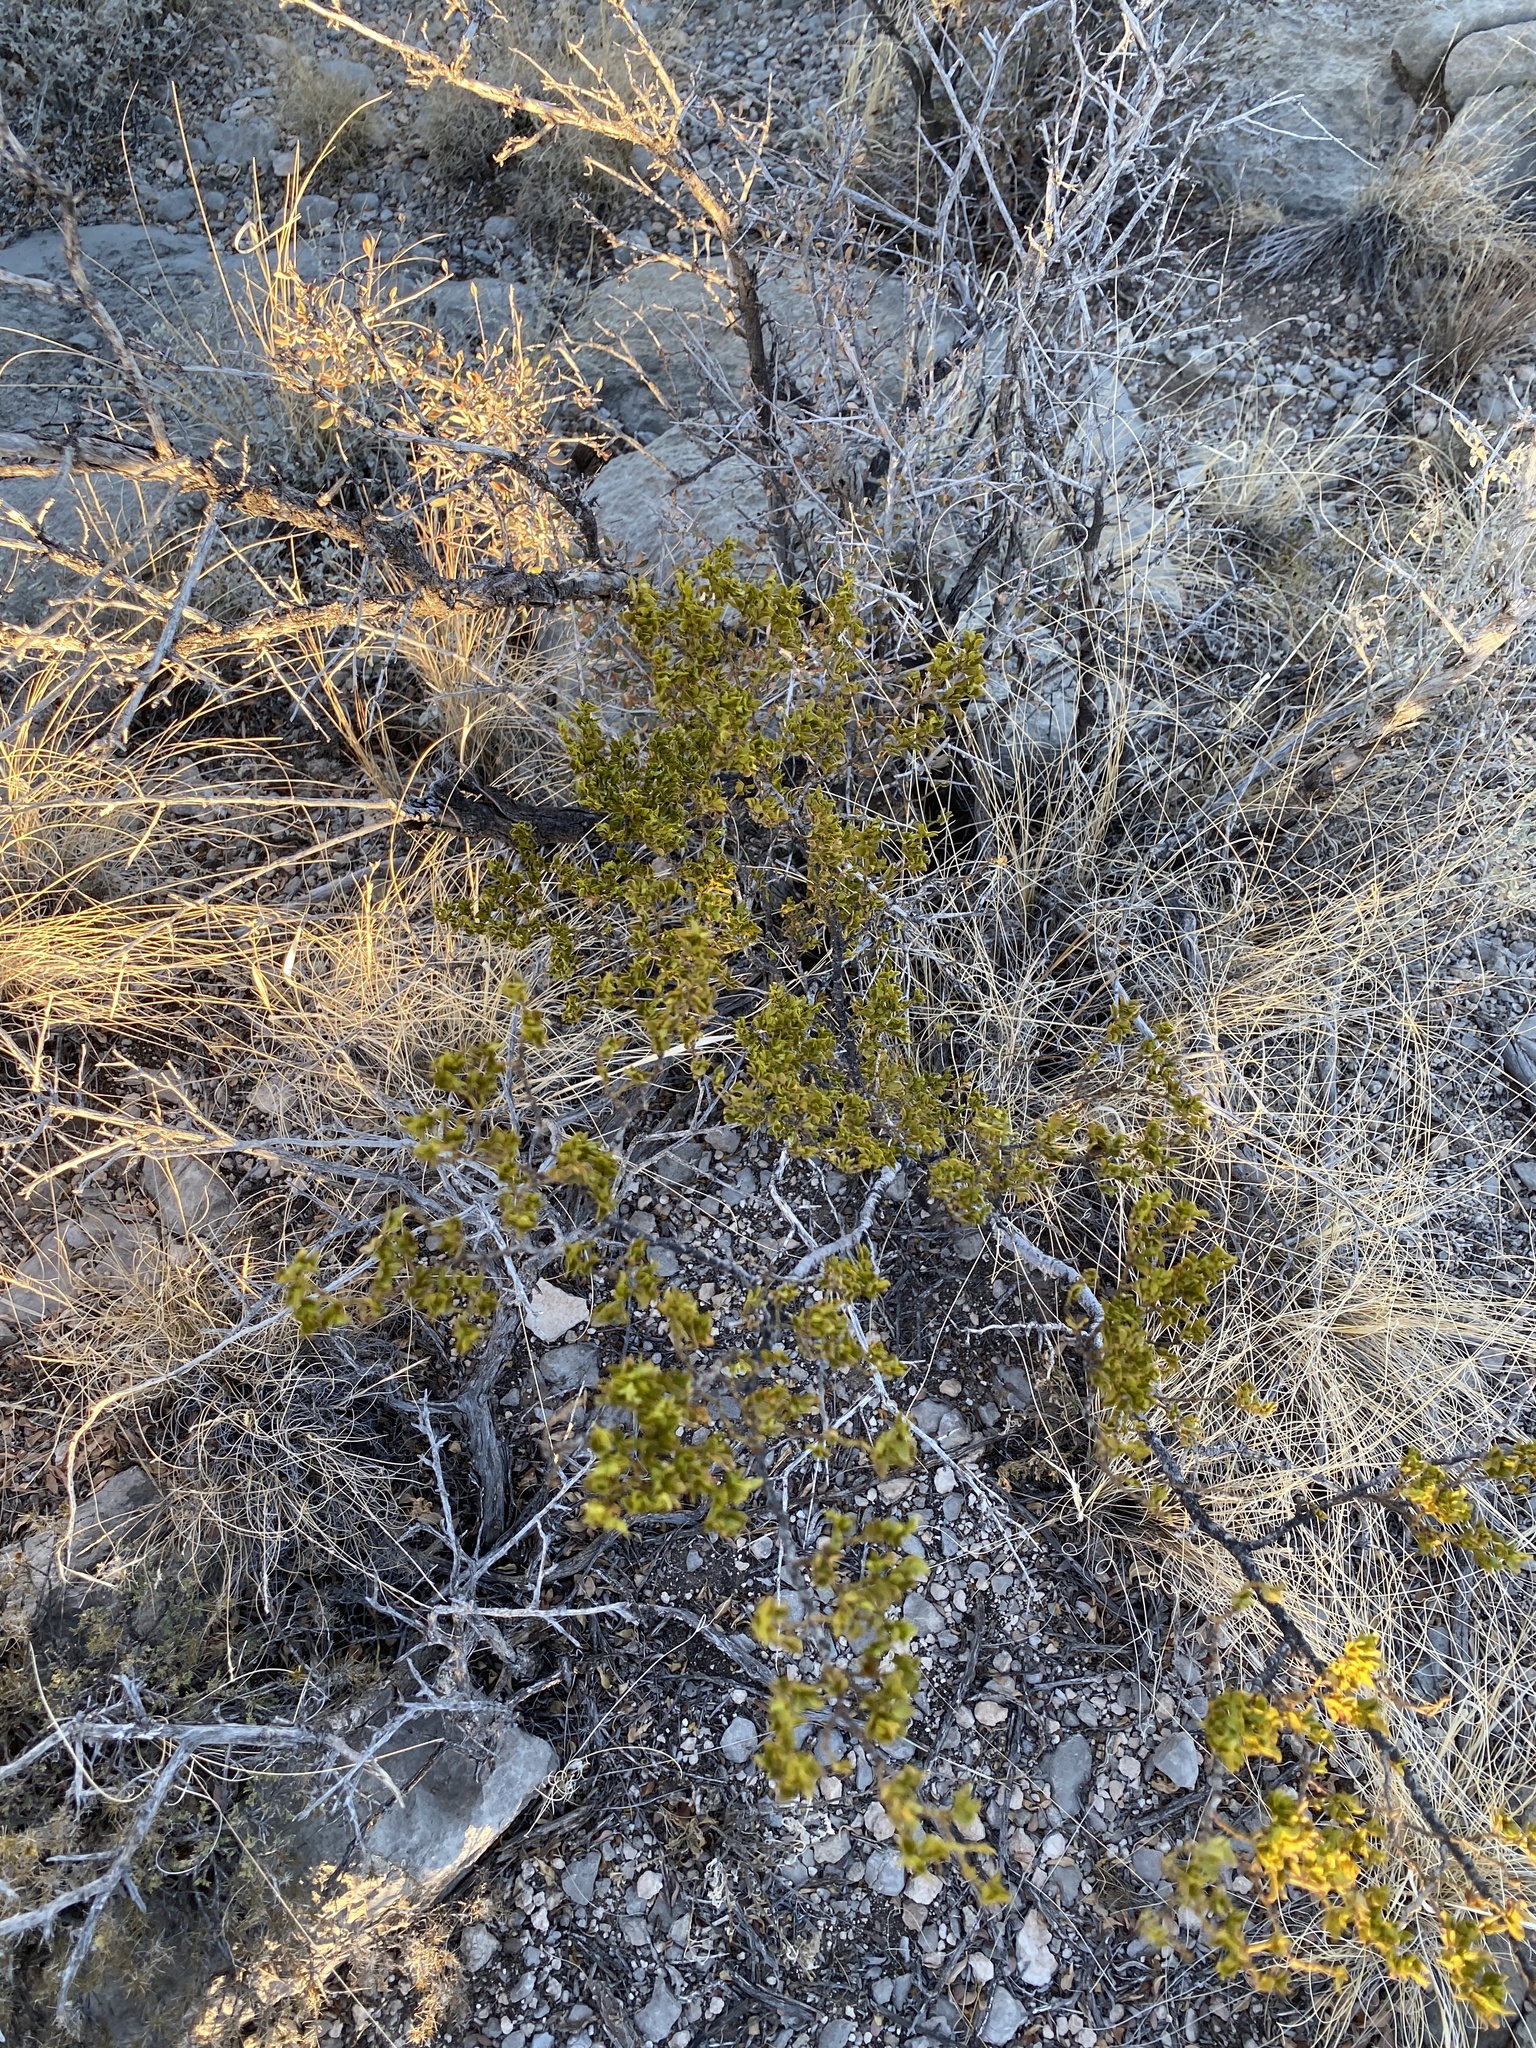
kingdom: Plantae
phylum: Tracheophyta
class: Magnoliopsida
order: Zygophyllales
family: Zygophyllaceae
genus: Larrea
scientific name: Larrea tridentata
